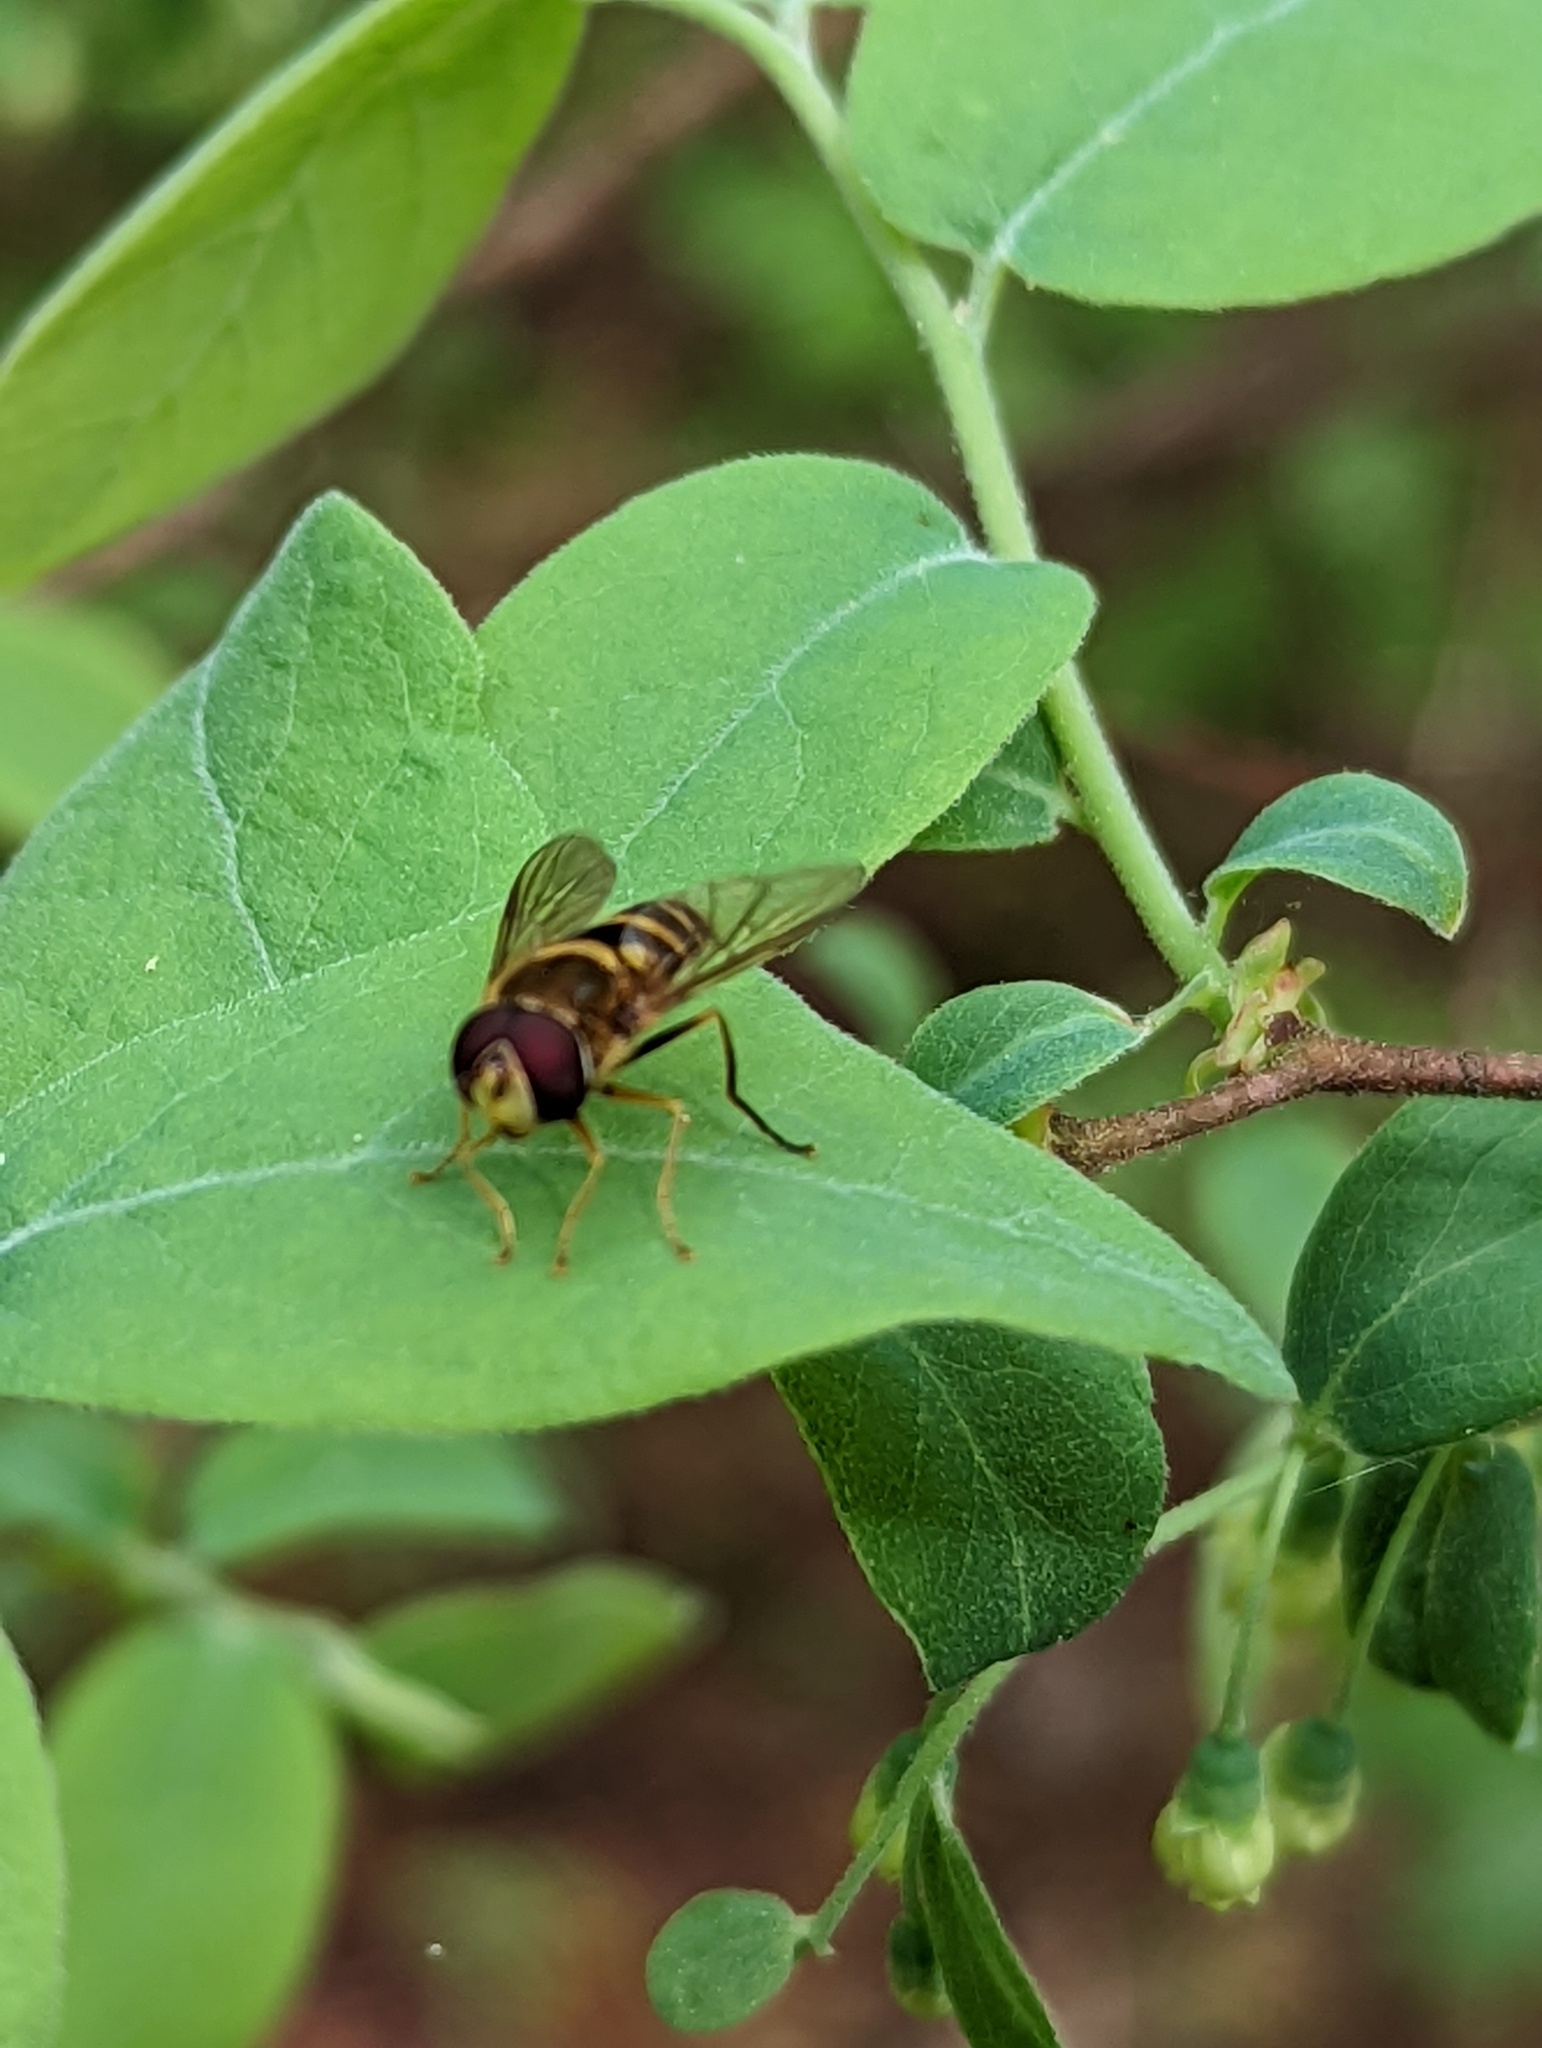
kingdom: Animalia
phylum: Arthropoda
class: Insecta
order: Diptera
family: Syrphidae
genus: Syrphus
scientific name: Syrphus
